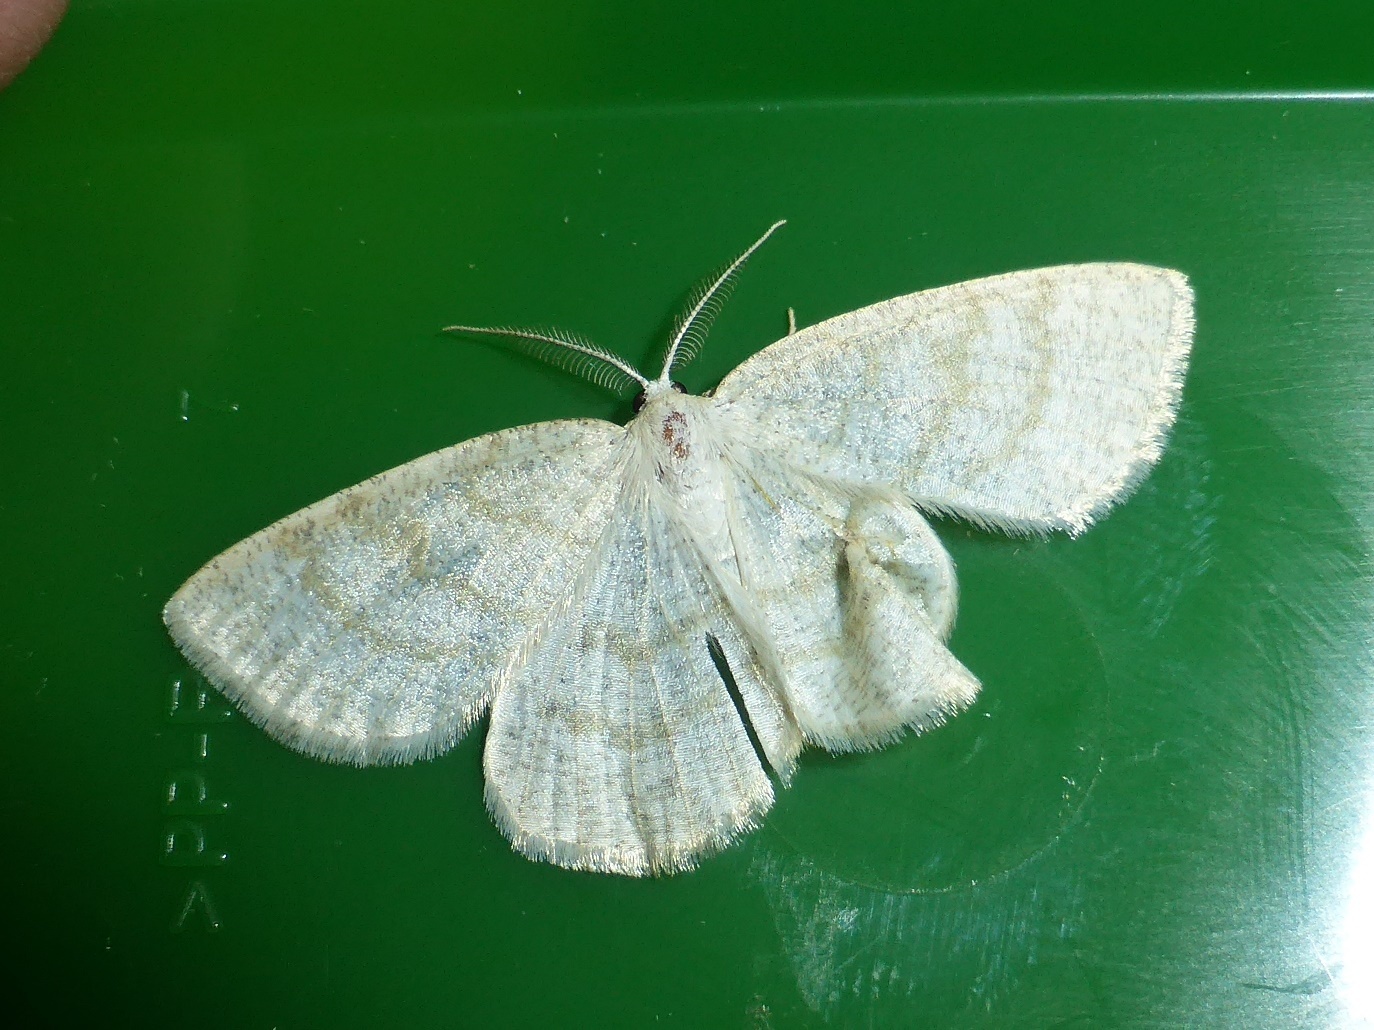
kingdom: Animalia
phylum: Arthropoda
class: Insecta
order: Lepidoptera
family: Geometridae
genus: Cabera
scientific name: Cabera exanthemata
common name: Common wave
